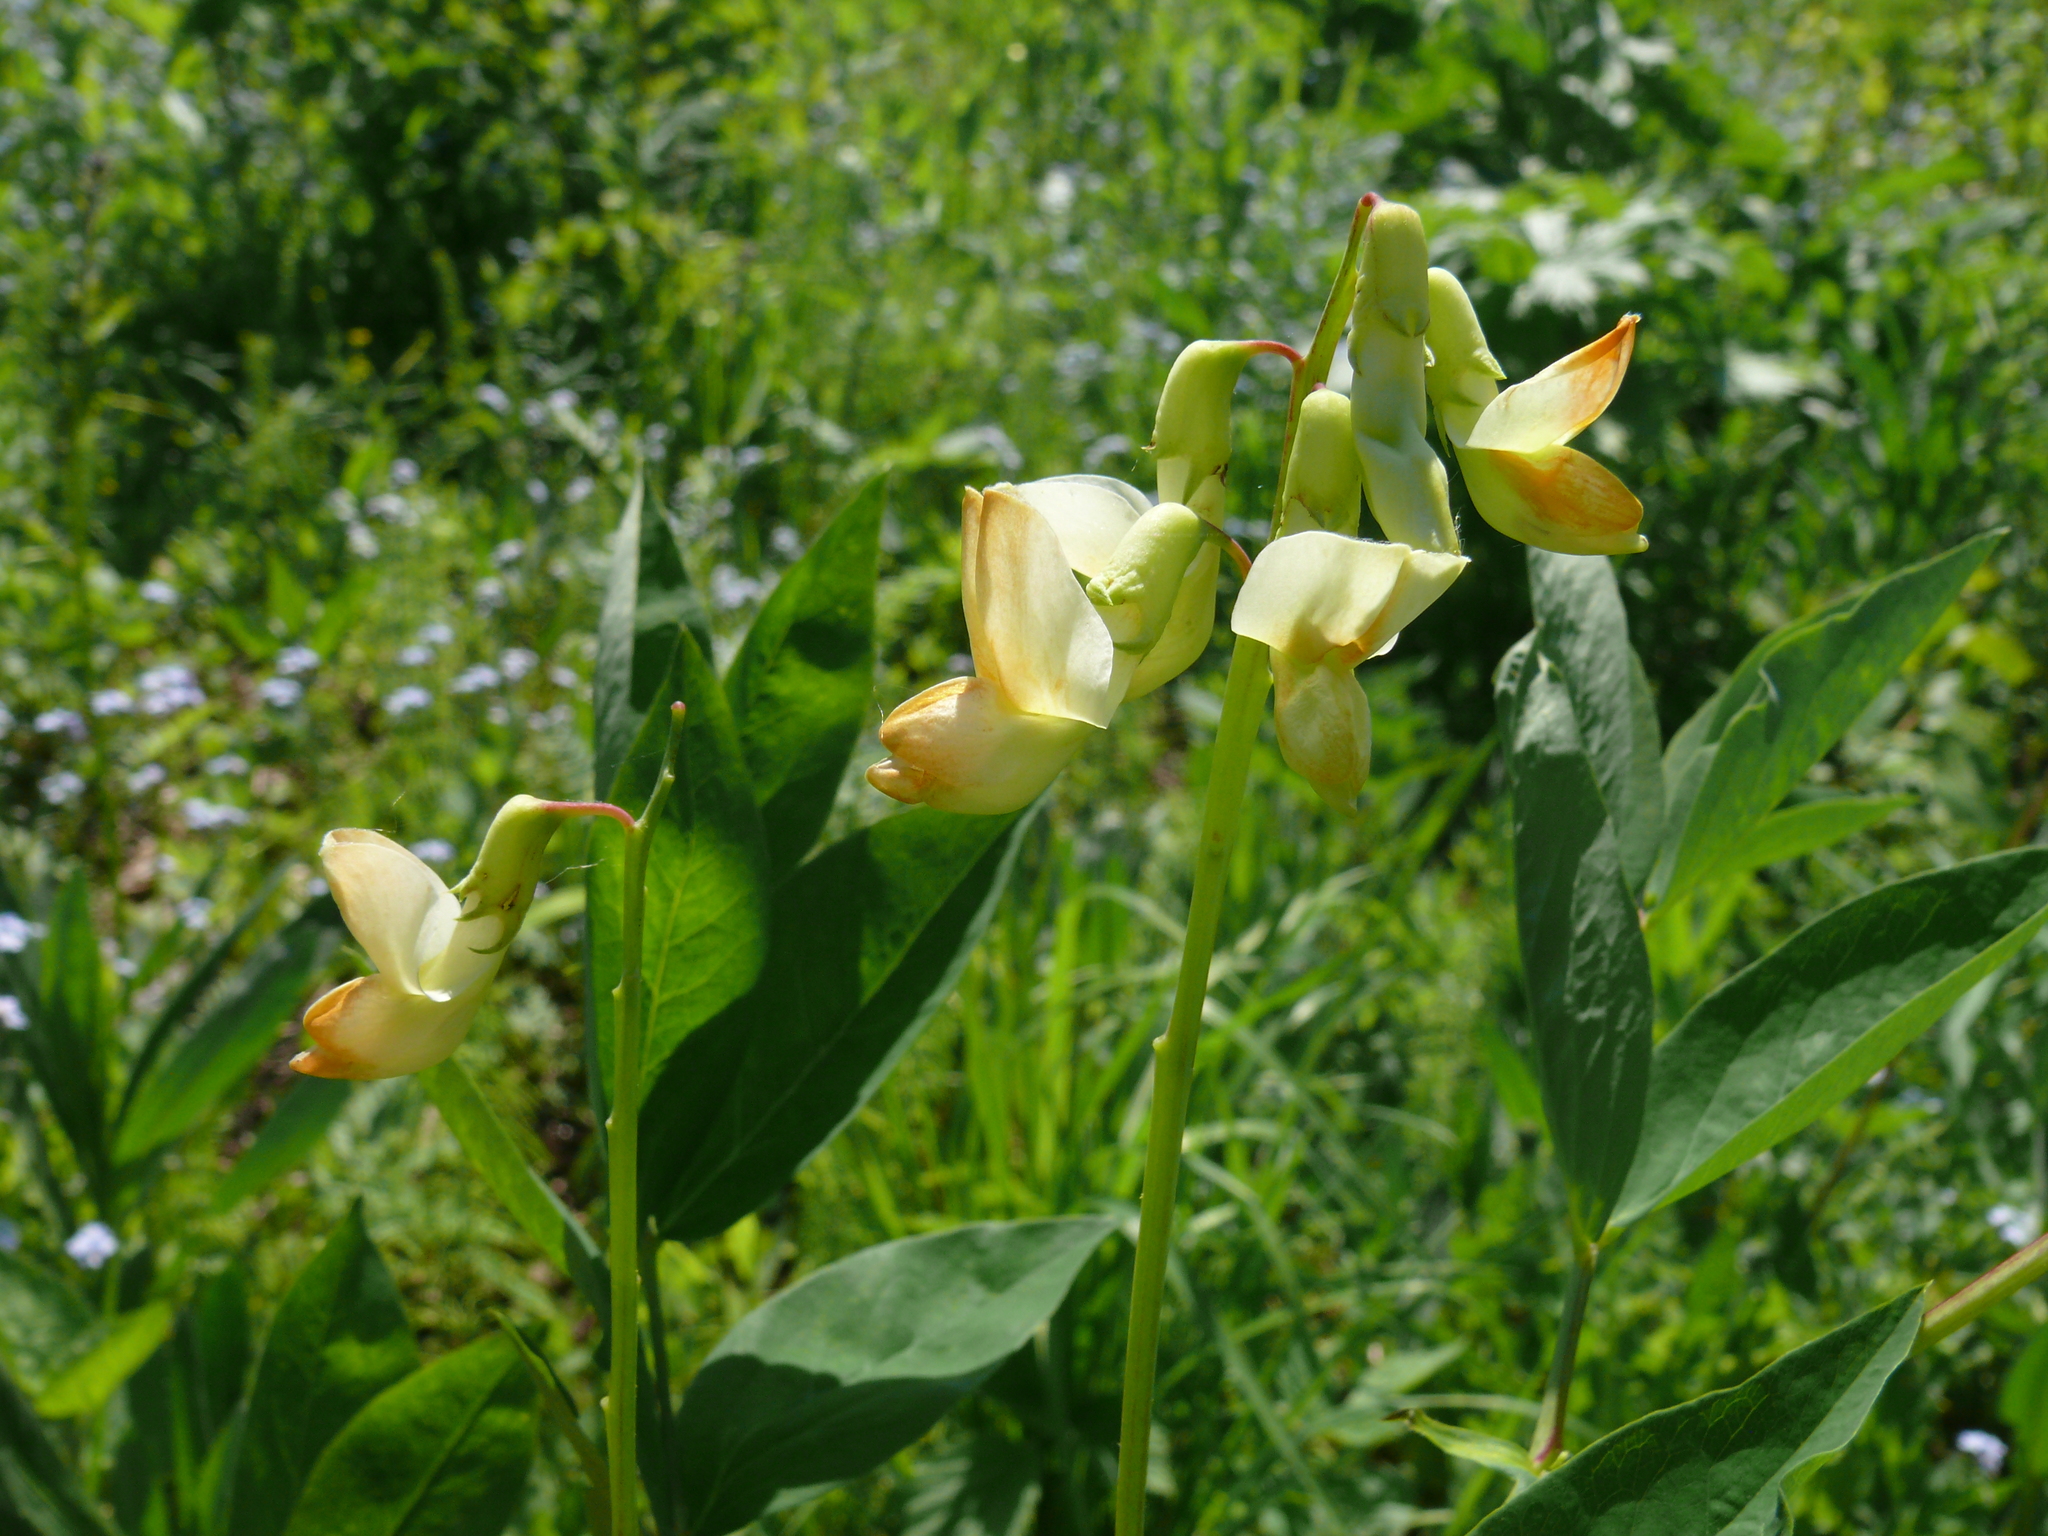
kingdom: Plantae
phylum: Tracheophyta
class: Magnoliopsida
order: Fabales
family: Fabaceae
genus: Lathyrus
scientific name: Lathyrus gmelinii
